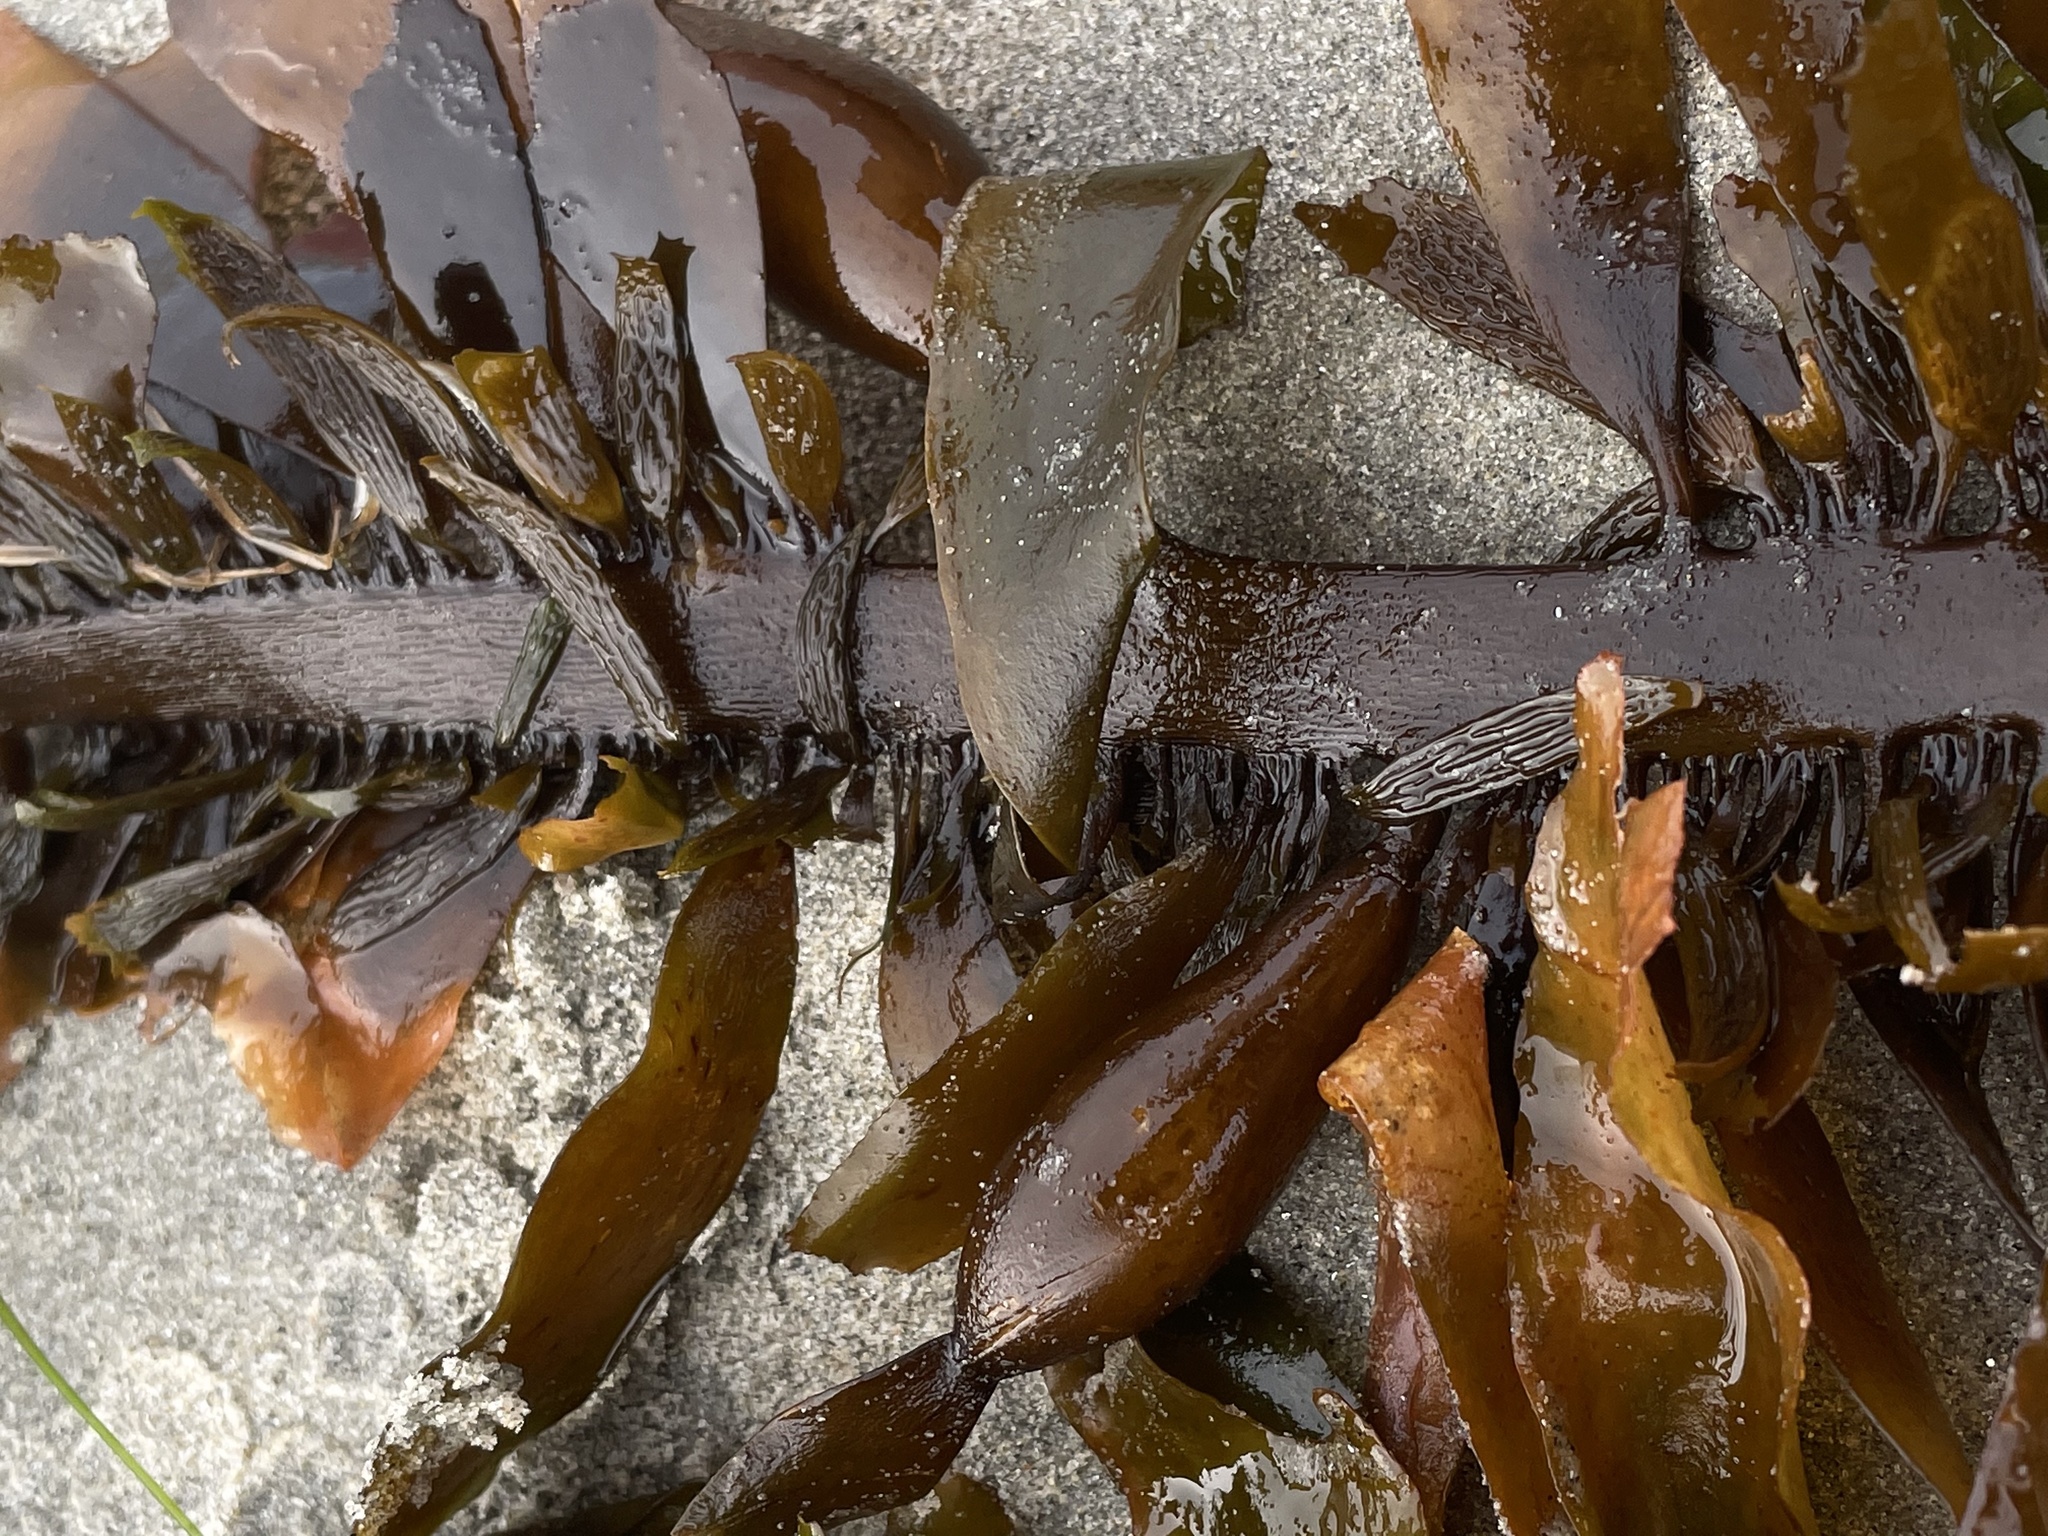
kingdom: Chromista
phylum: Ochrophyta
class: Phaeophyceae
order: Laminariales
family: Lessoniaceae
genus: Egregia
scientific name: Egregia menziesii
